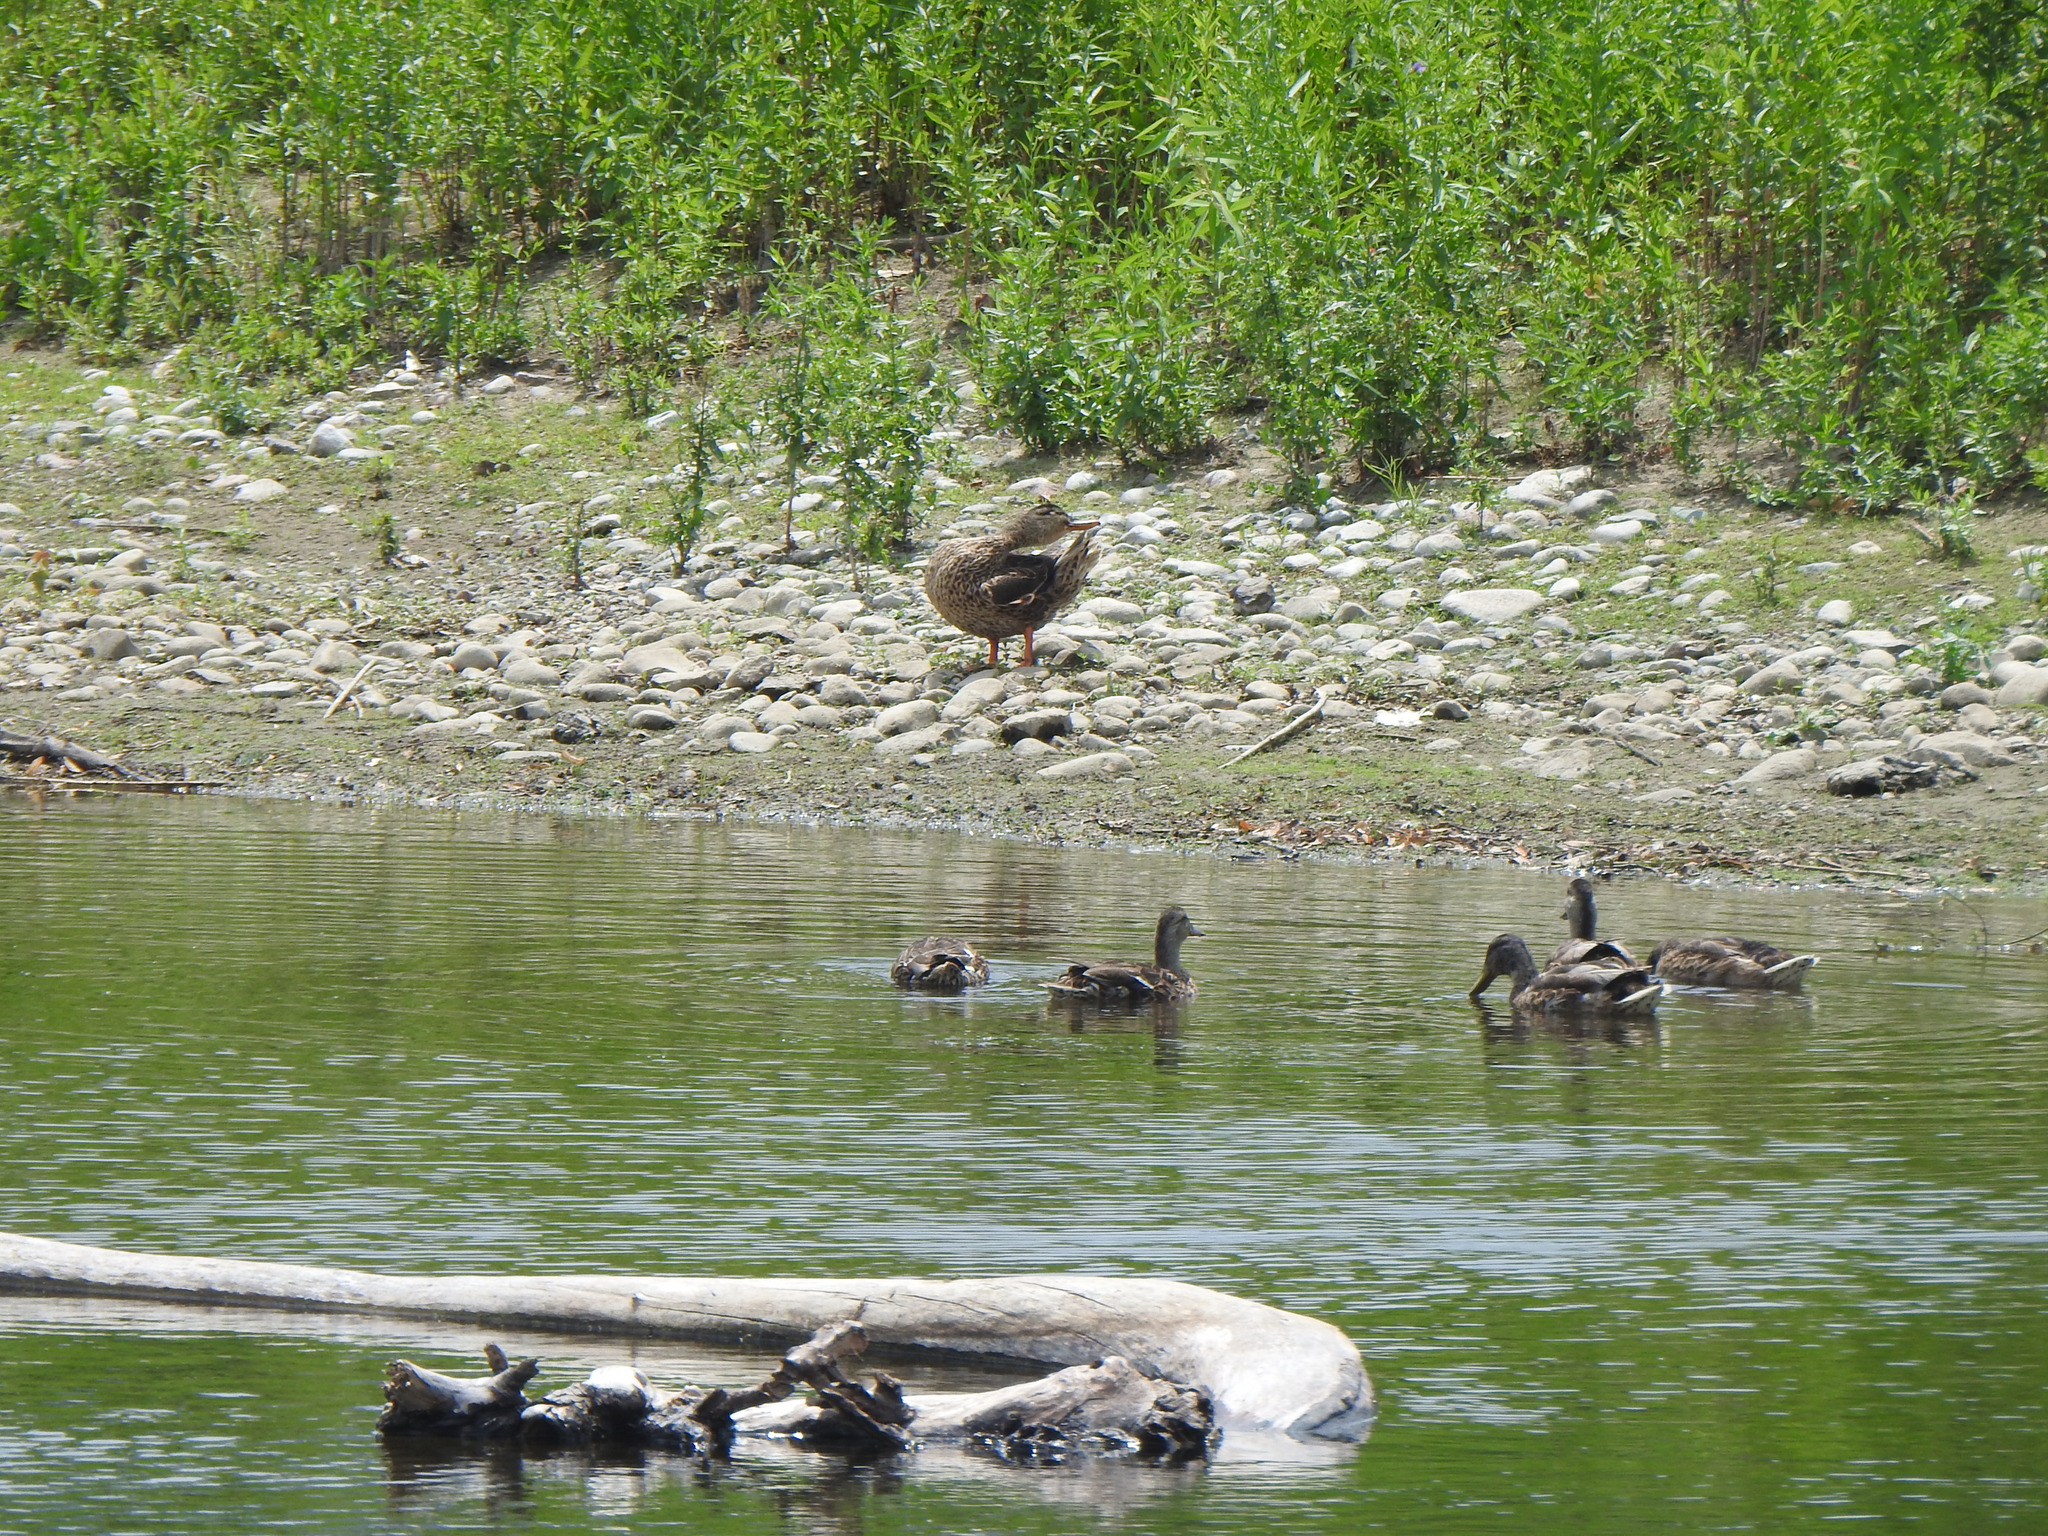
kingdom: Animalia
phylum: Chordata
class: Aves
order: Anseriformes
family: Anatidae
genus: Anas
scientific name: Anas platyrhynchos
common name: Mallard
